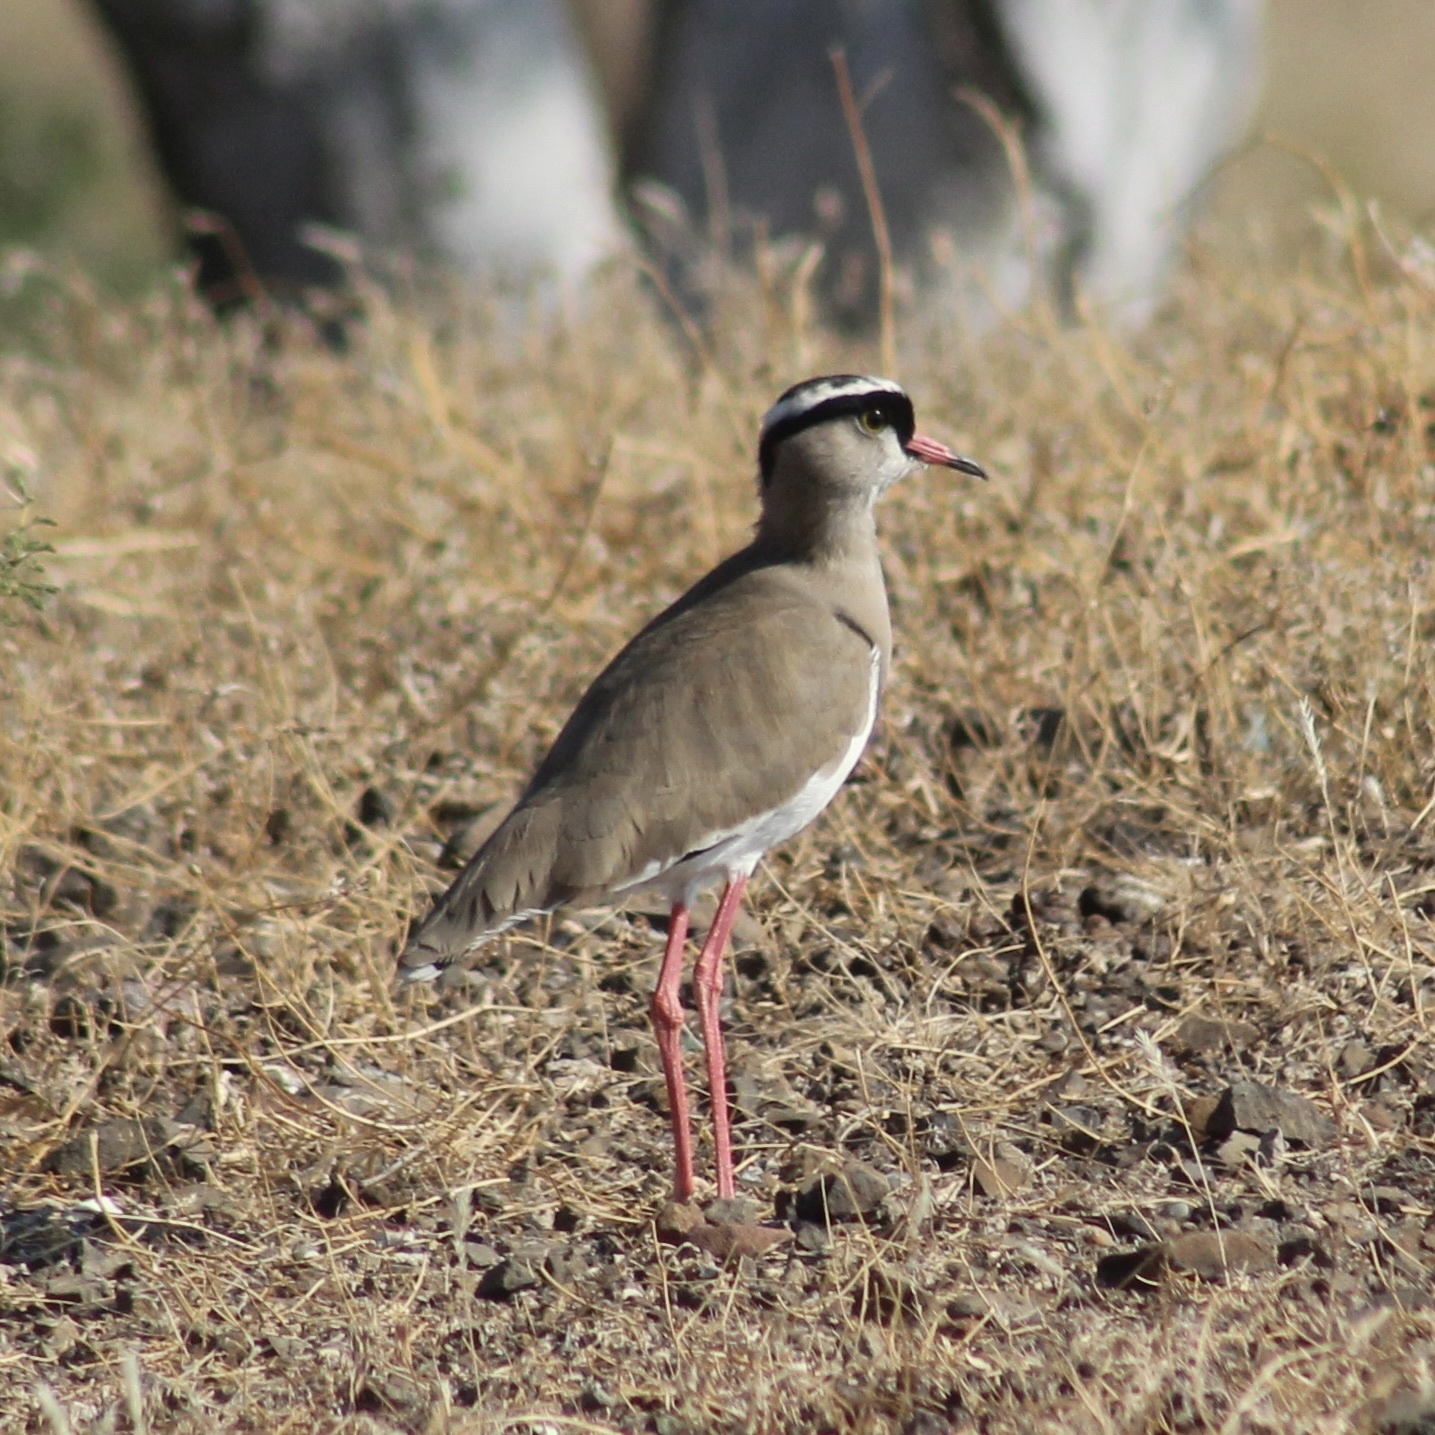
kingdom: Animalia
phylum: Chordata
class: Aves
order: Charadriiformes
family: Charadriidae
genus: Vanellus
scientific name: Vanellus coronatus
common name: Crowned lapwing
